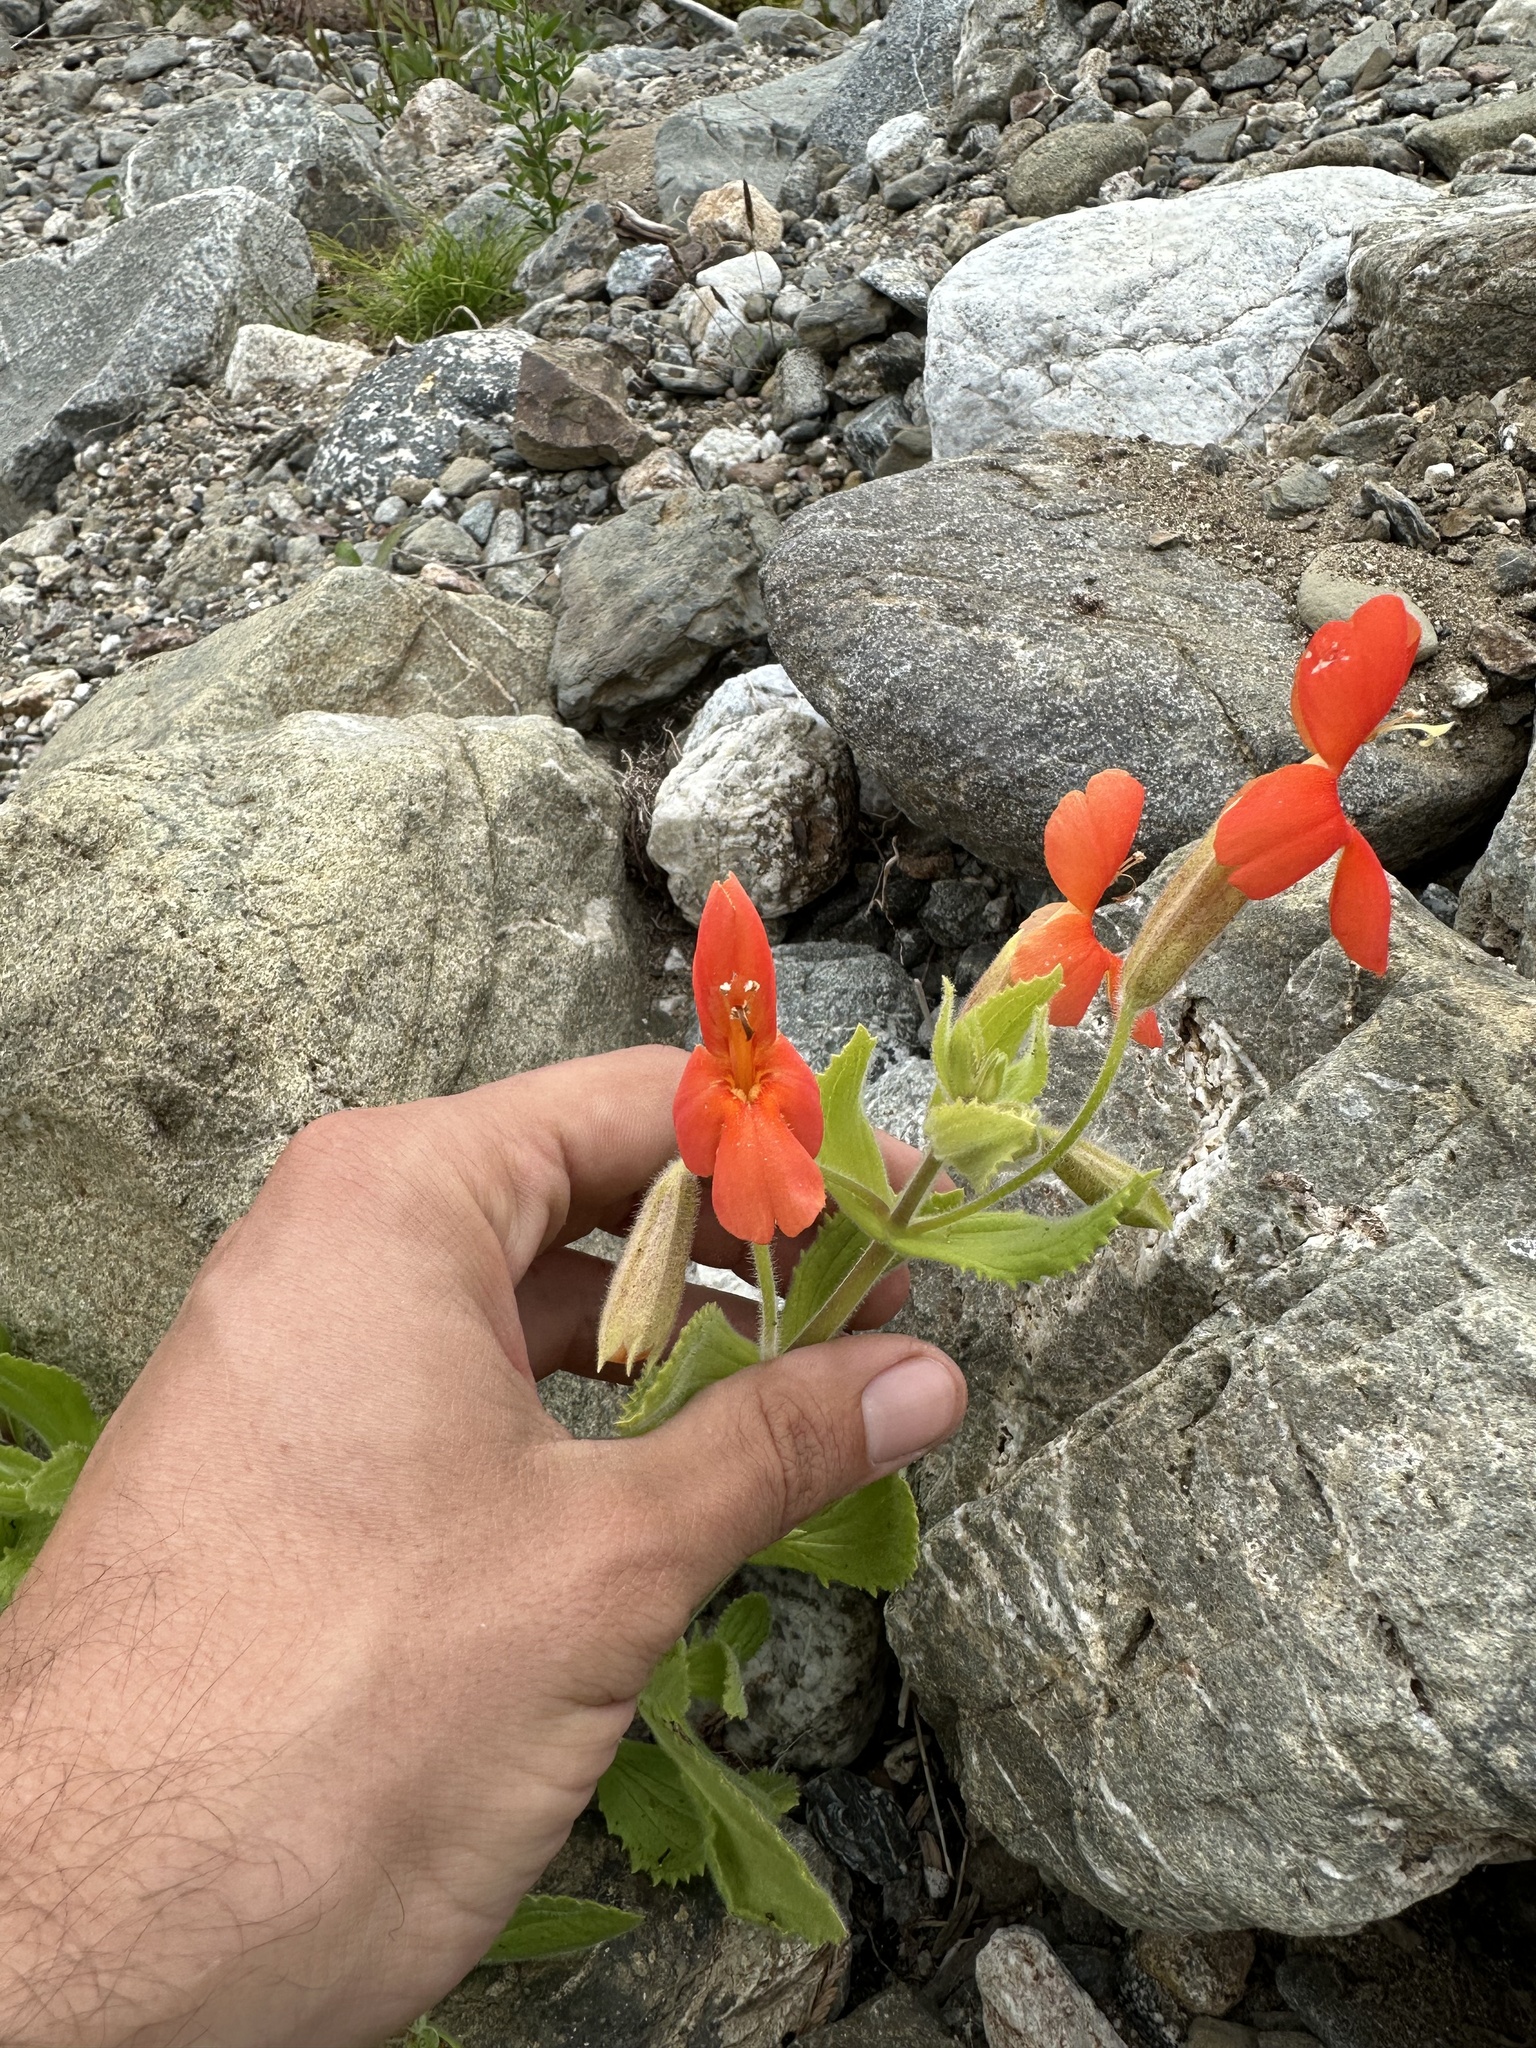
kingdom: Plantae
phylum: Tracheophyta
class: Magnoliopsida
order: Lamiales
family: Phrymaceae
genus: Erythranthe
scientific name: Erythranthe cardinalis
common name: Scarlet monkey-flower
